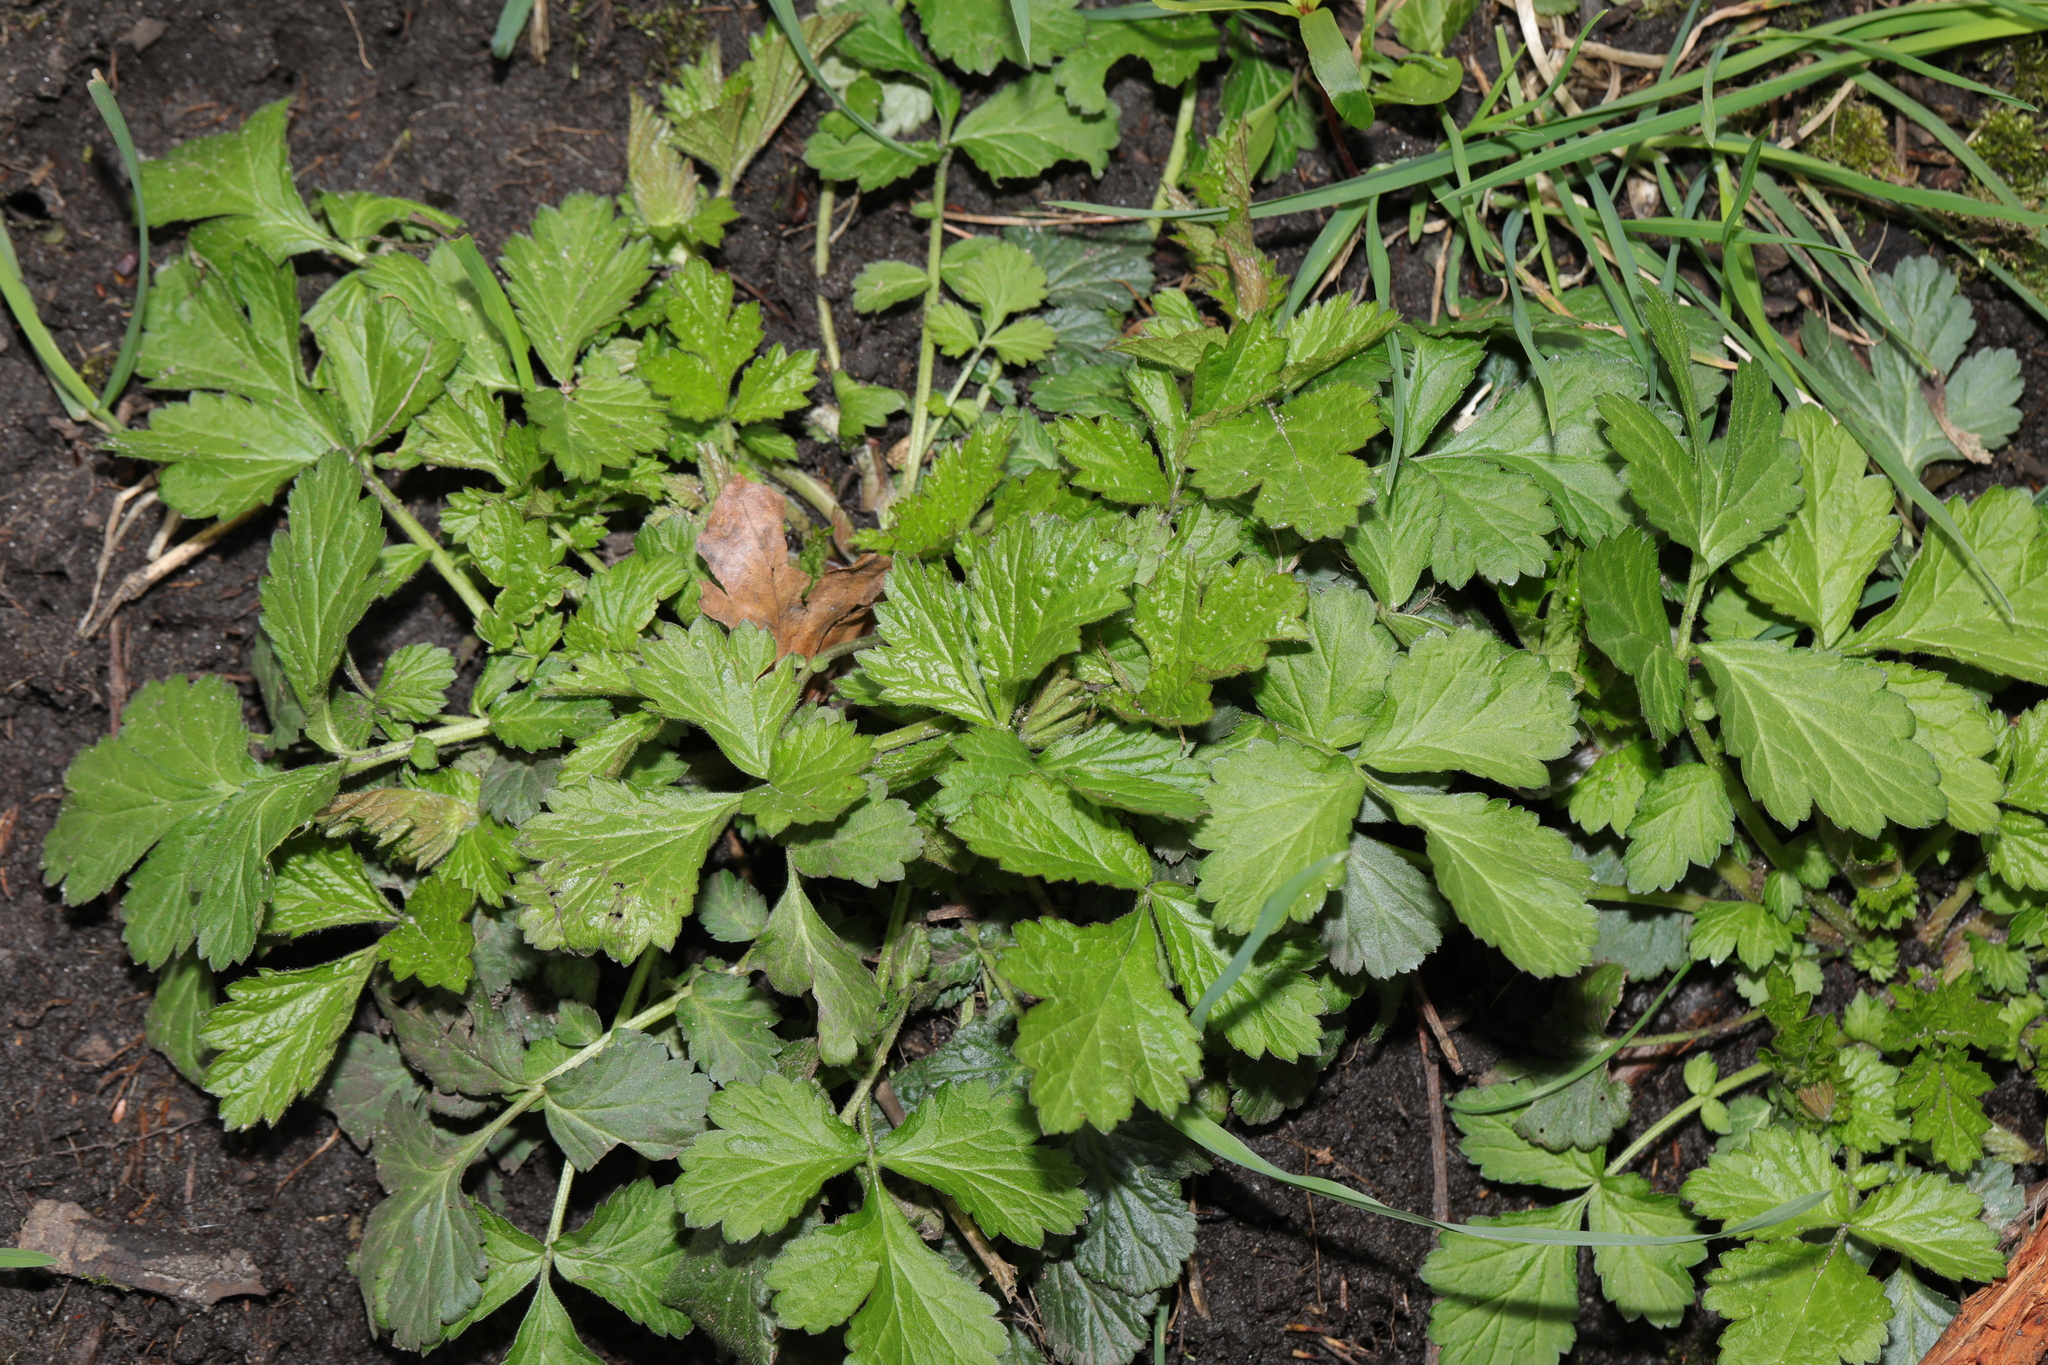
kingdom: Plantae
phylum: Tracheophyta
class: Magnoliopsida
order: Rosales
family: Rosaceae
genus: Geum
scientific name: Geum urbanum
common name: Wood avens
